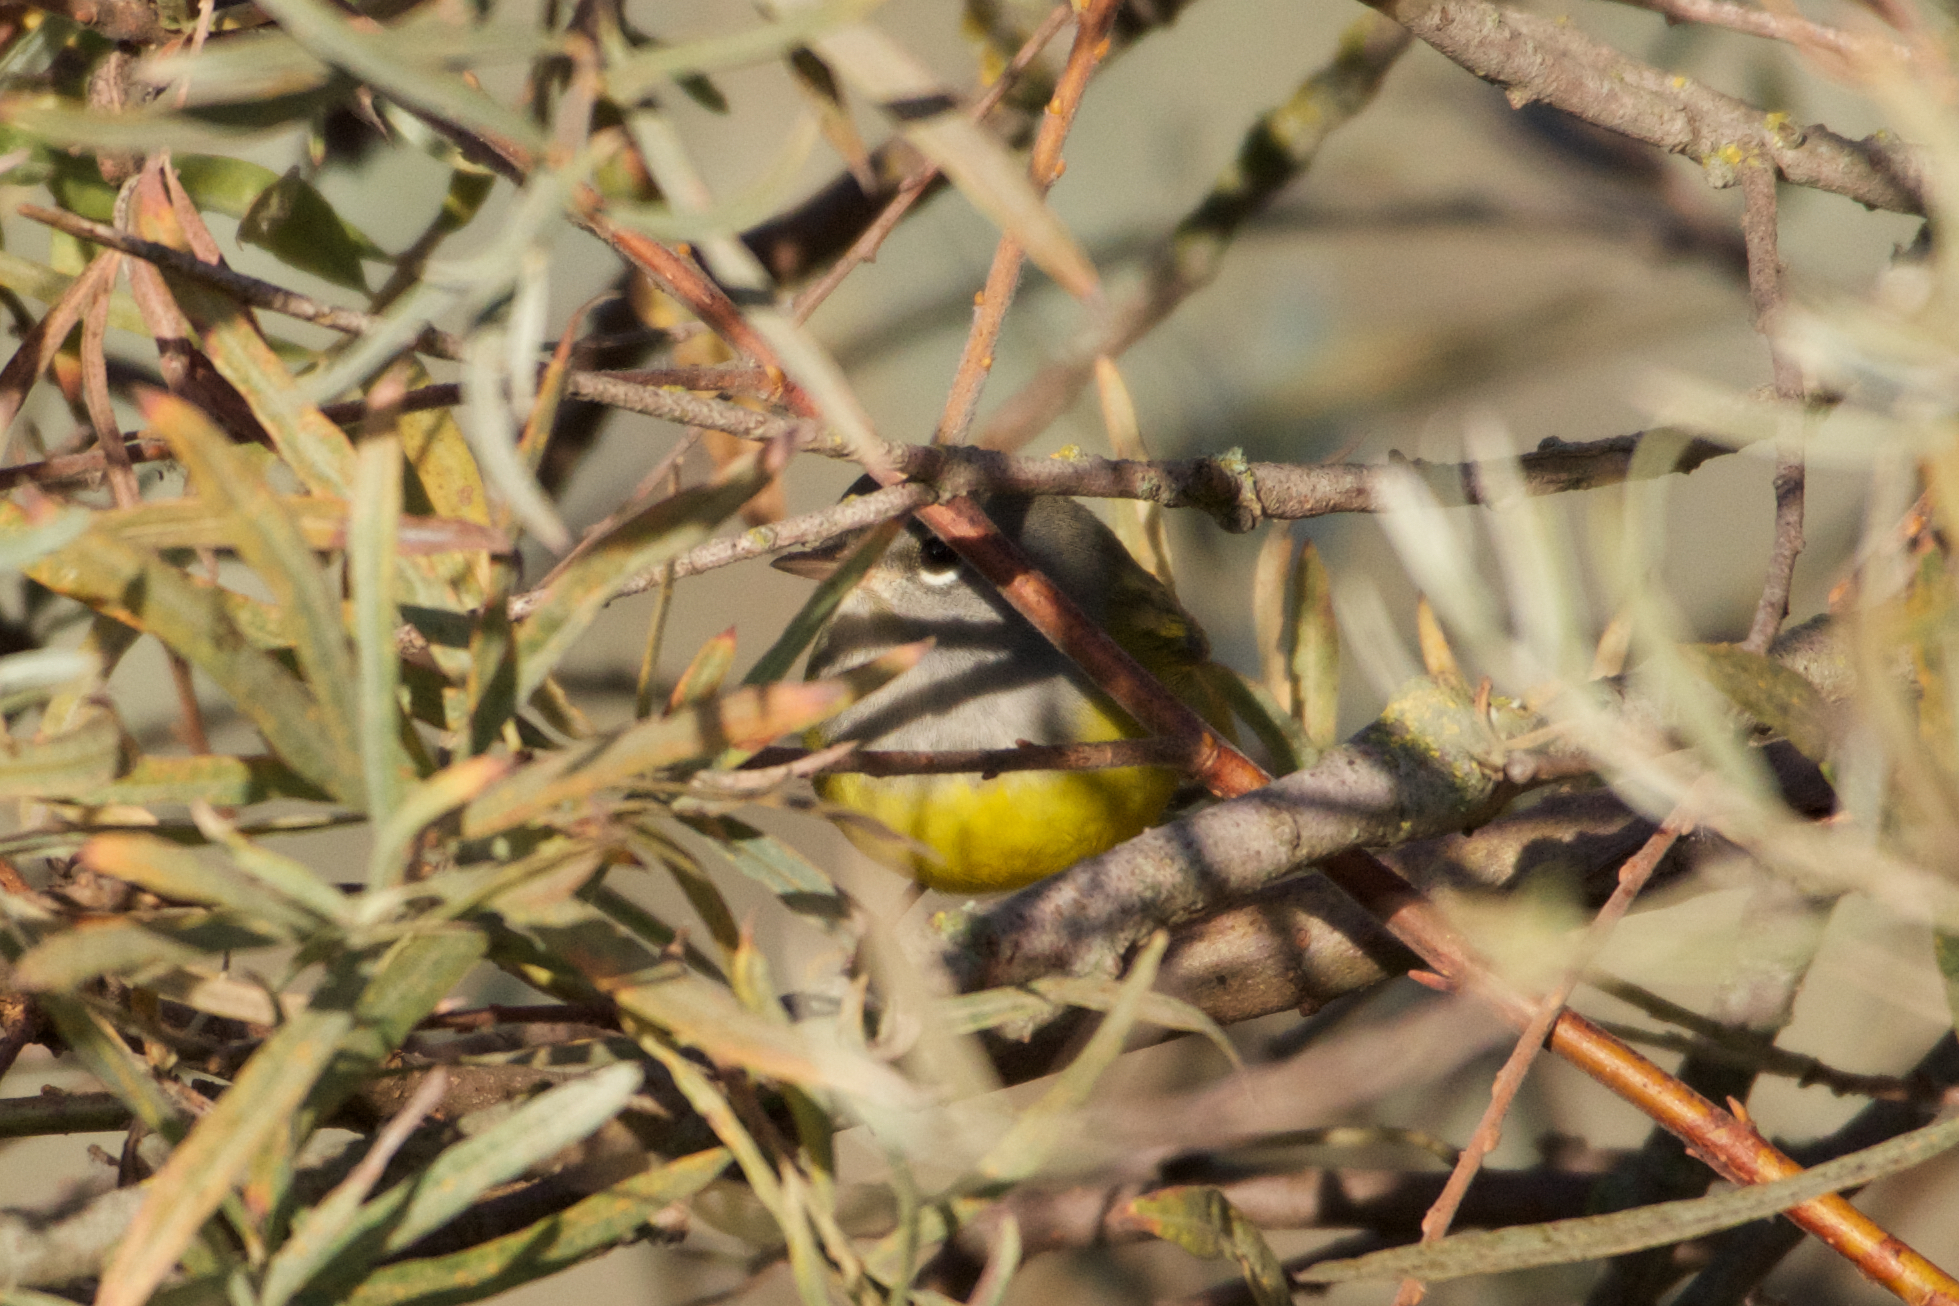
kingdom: Animalia
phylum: Chordata
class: Aves
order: Passeriformes
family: Parulidae
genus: Geothlypis
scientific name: Geothlypis tolmiei
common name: Macgillivray's warbler
